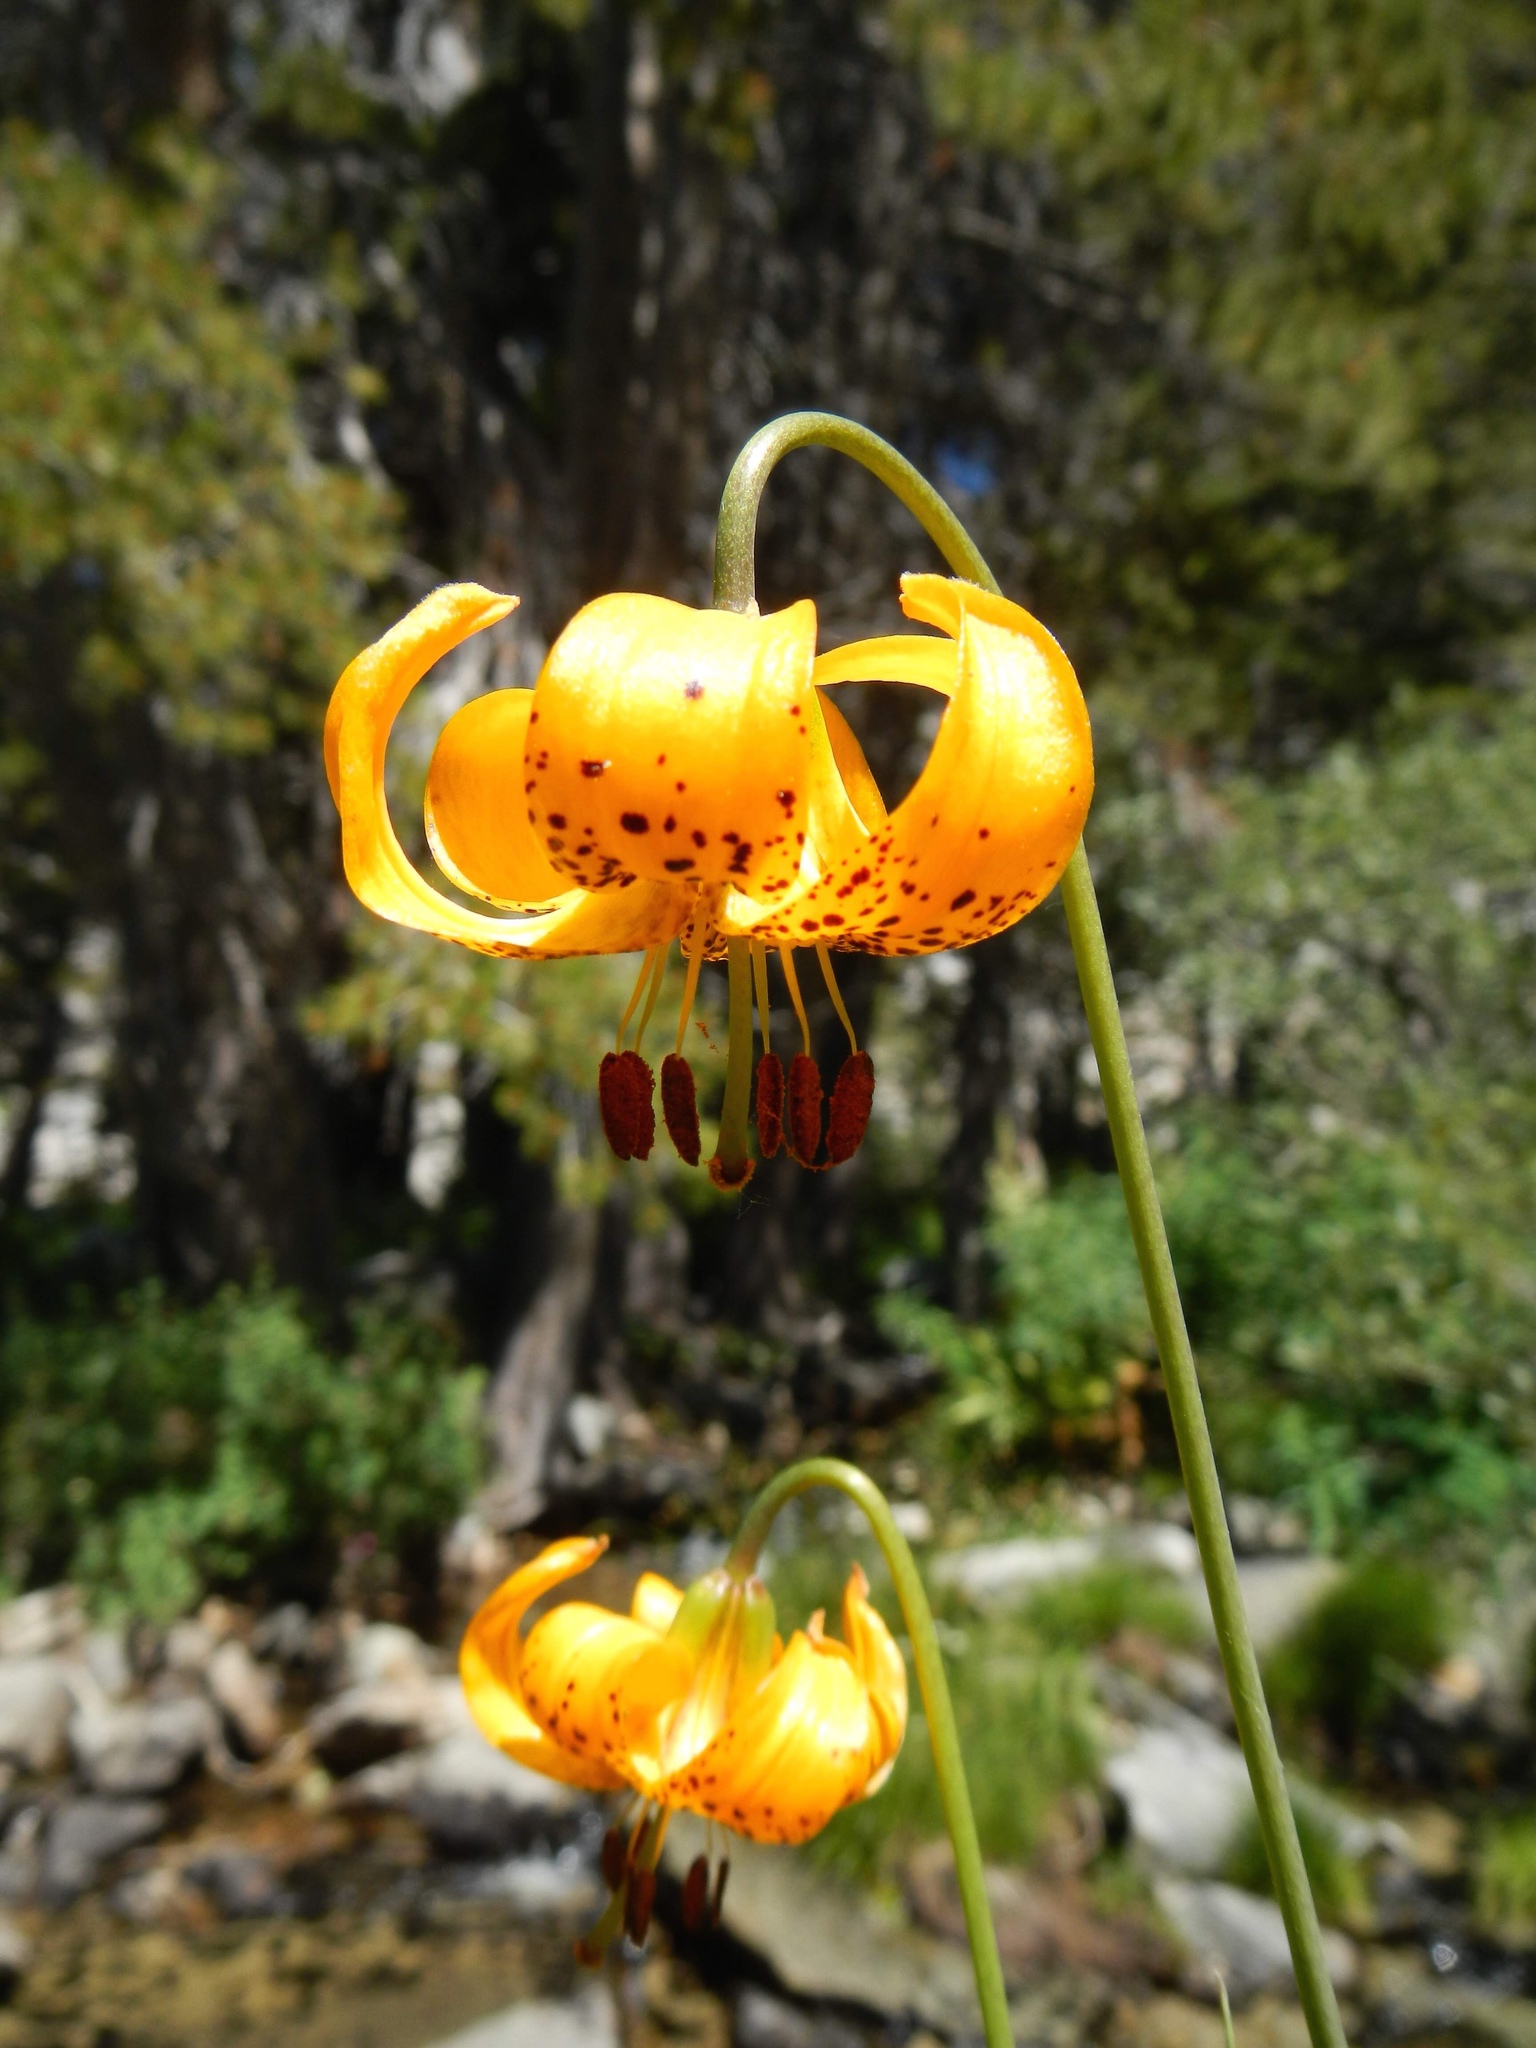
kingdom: Plantae
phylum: Tracheophyta
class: Liliopsida
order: Liliales
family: Liliaceae
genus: Lilium
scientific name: Lilium kelleyanum
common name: Kelley's lily
